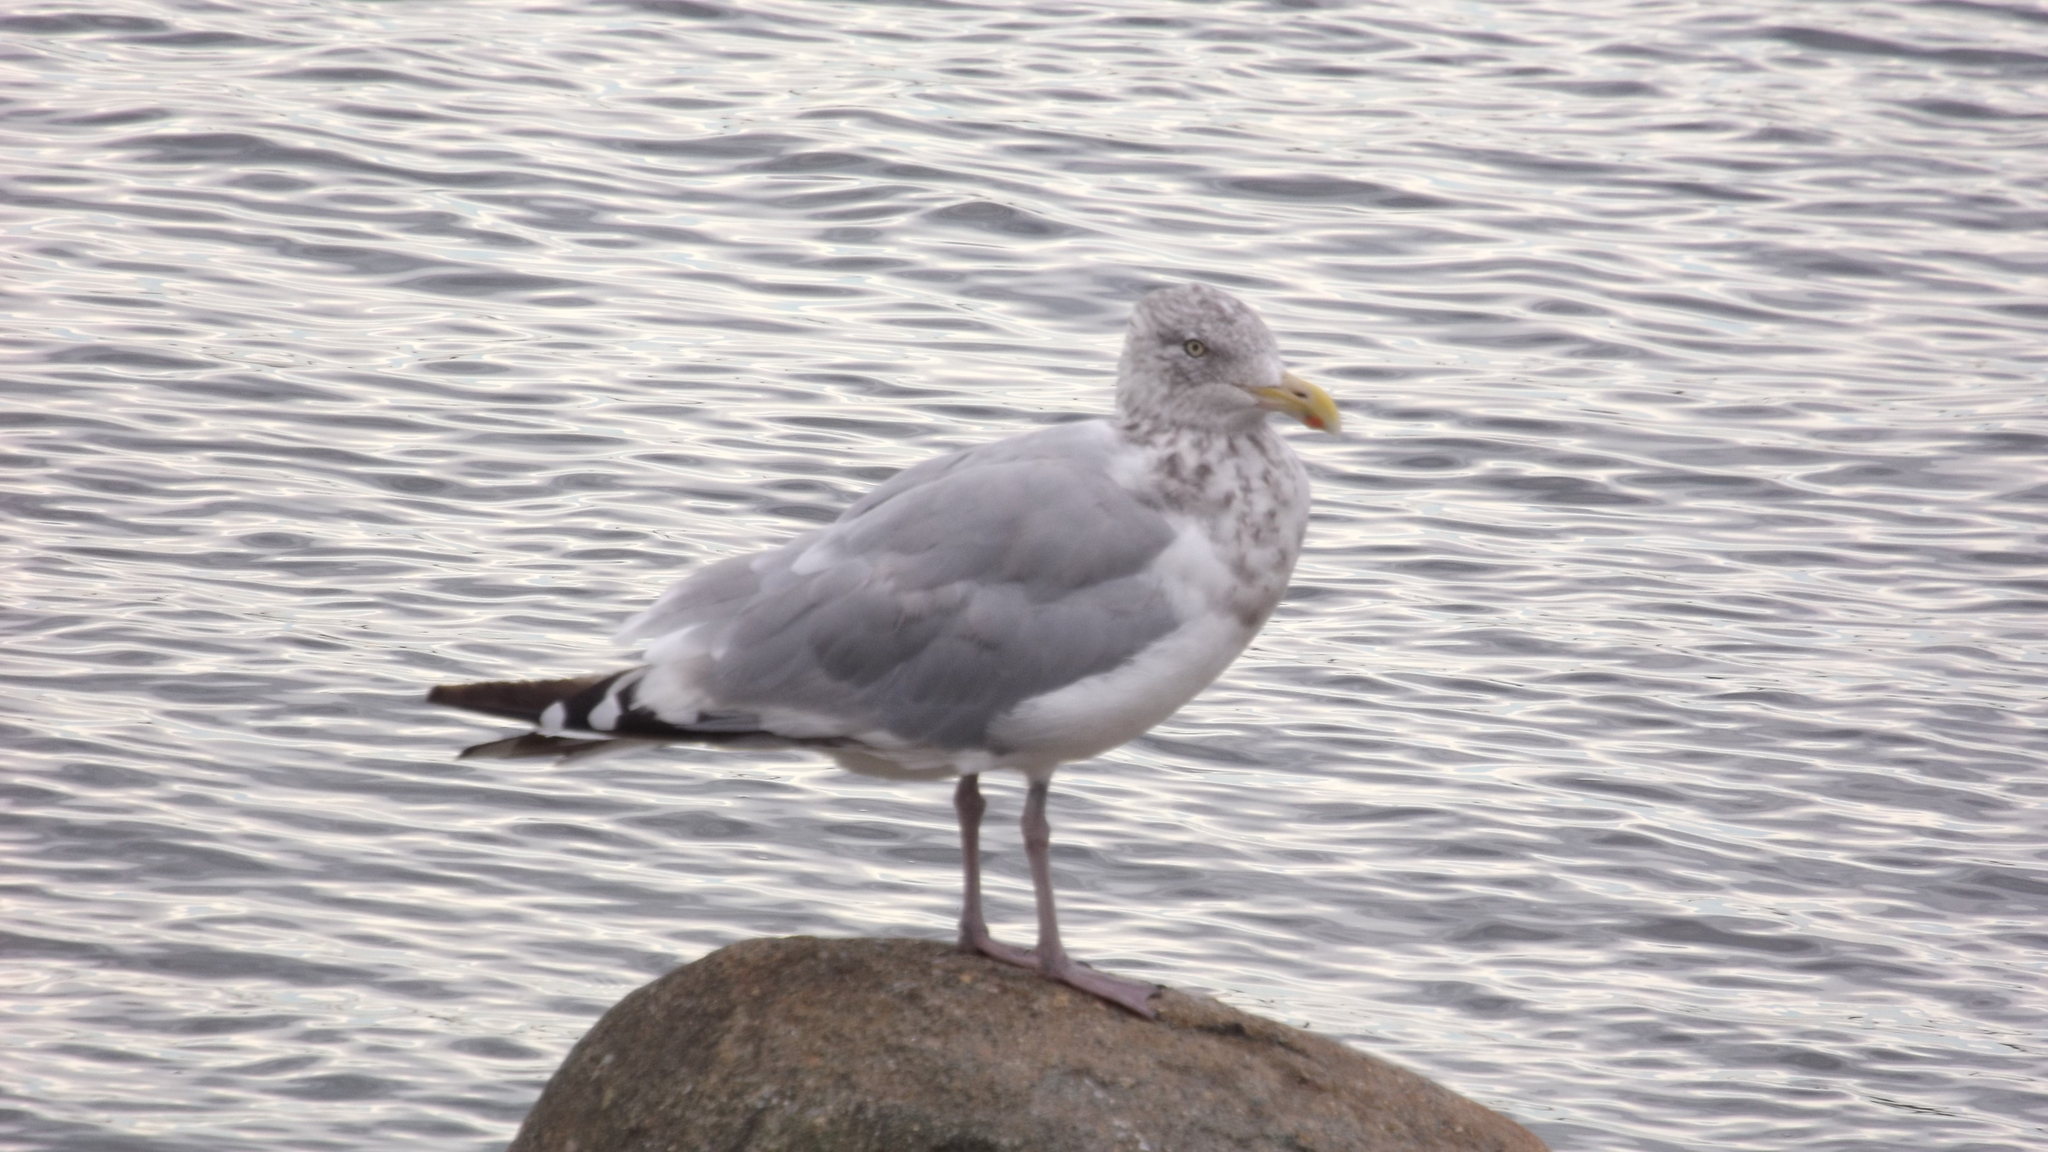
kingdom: Animalia
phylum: Chordata
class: Aves
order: Charadriiformes
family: Laridae
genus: Larus
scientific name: Larus smithsonianus
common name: American herring gull
